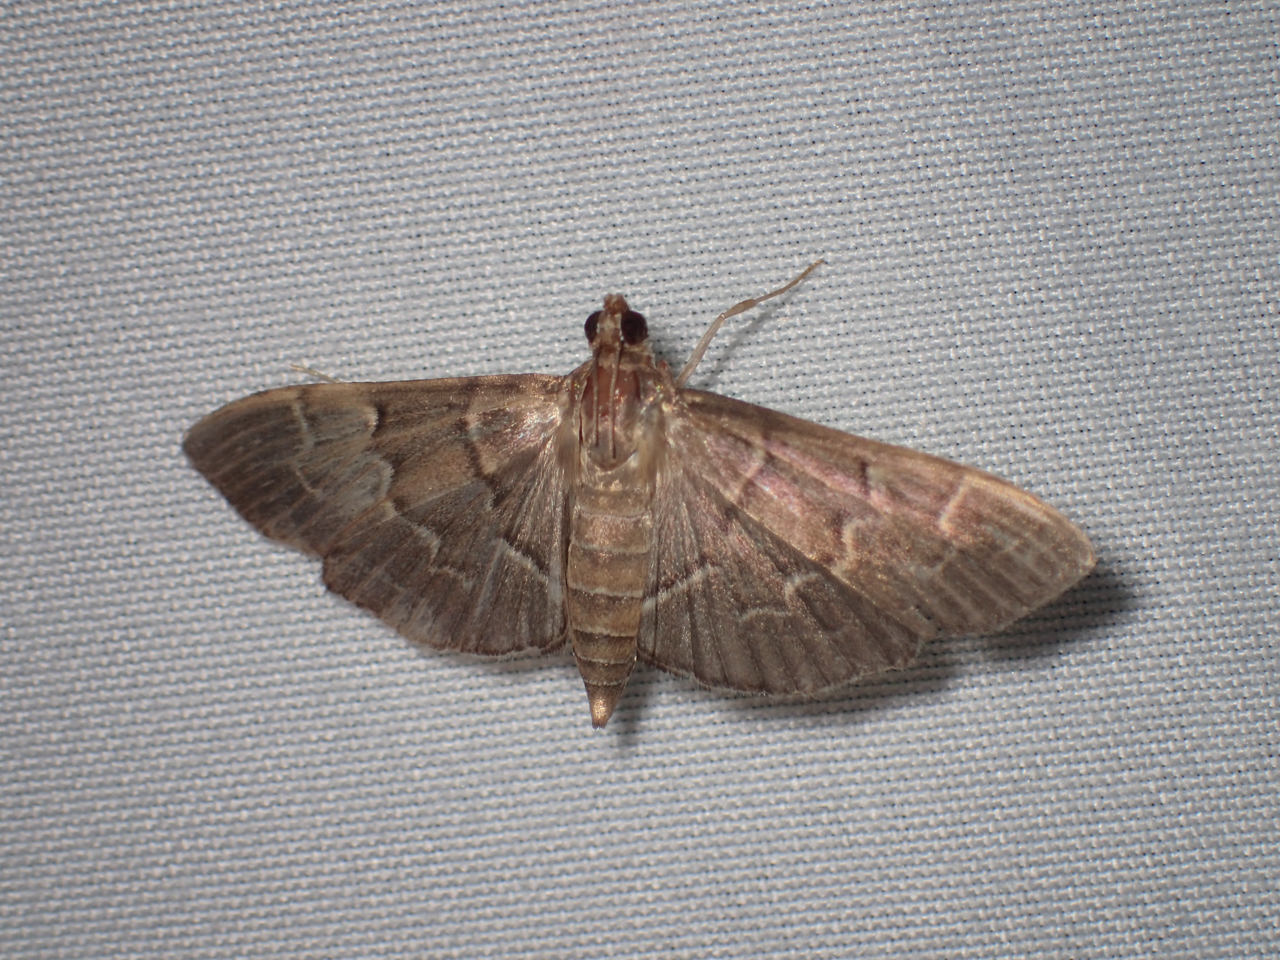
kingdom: Animalia
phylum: Arthropoda
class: Insecta
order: Lepidoptera
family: Crambidae
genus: Pilocrocis
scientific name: Pilocrocis ramentalis
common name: Scraped pilocrocis
